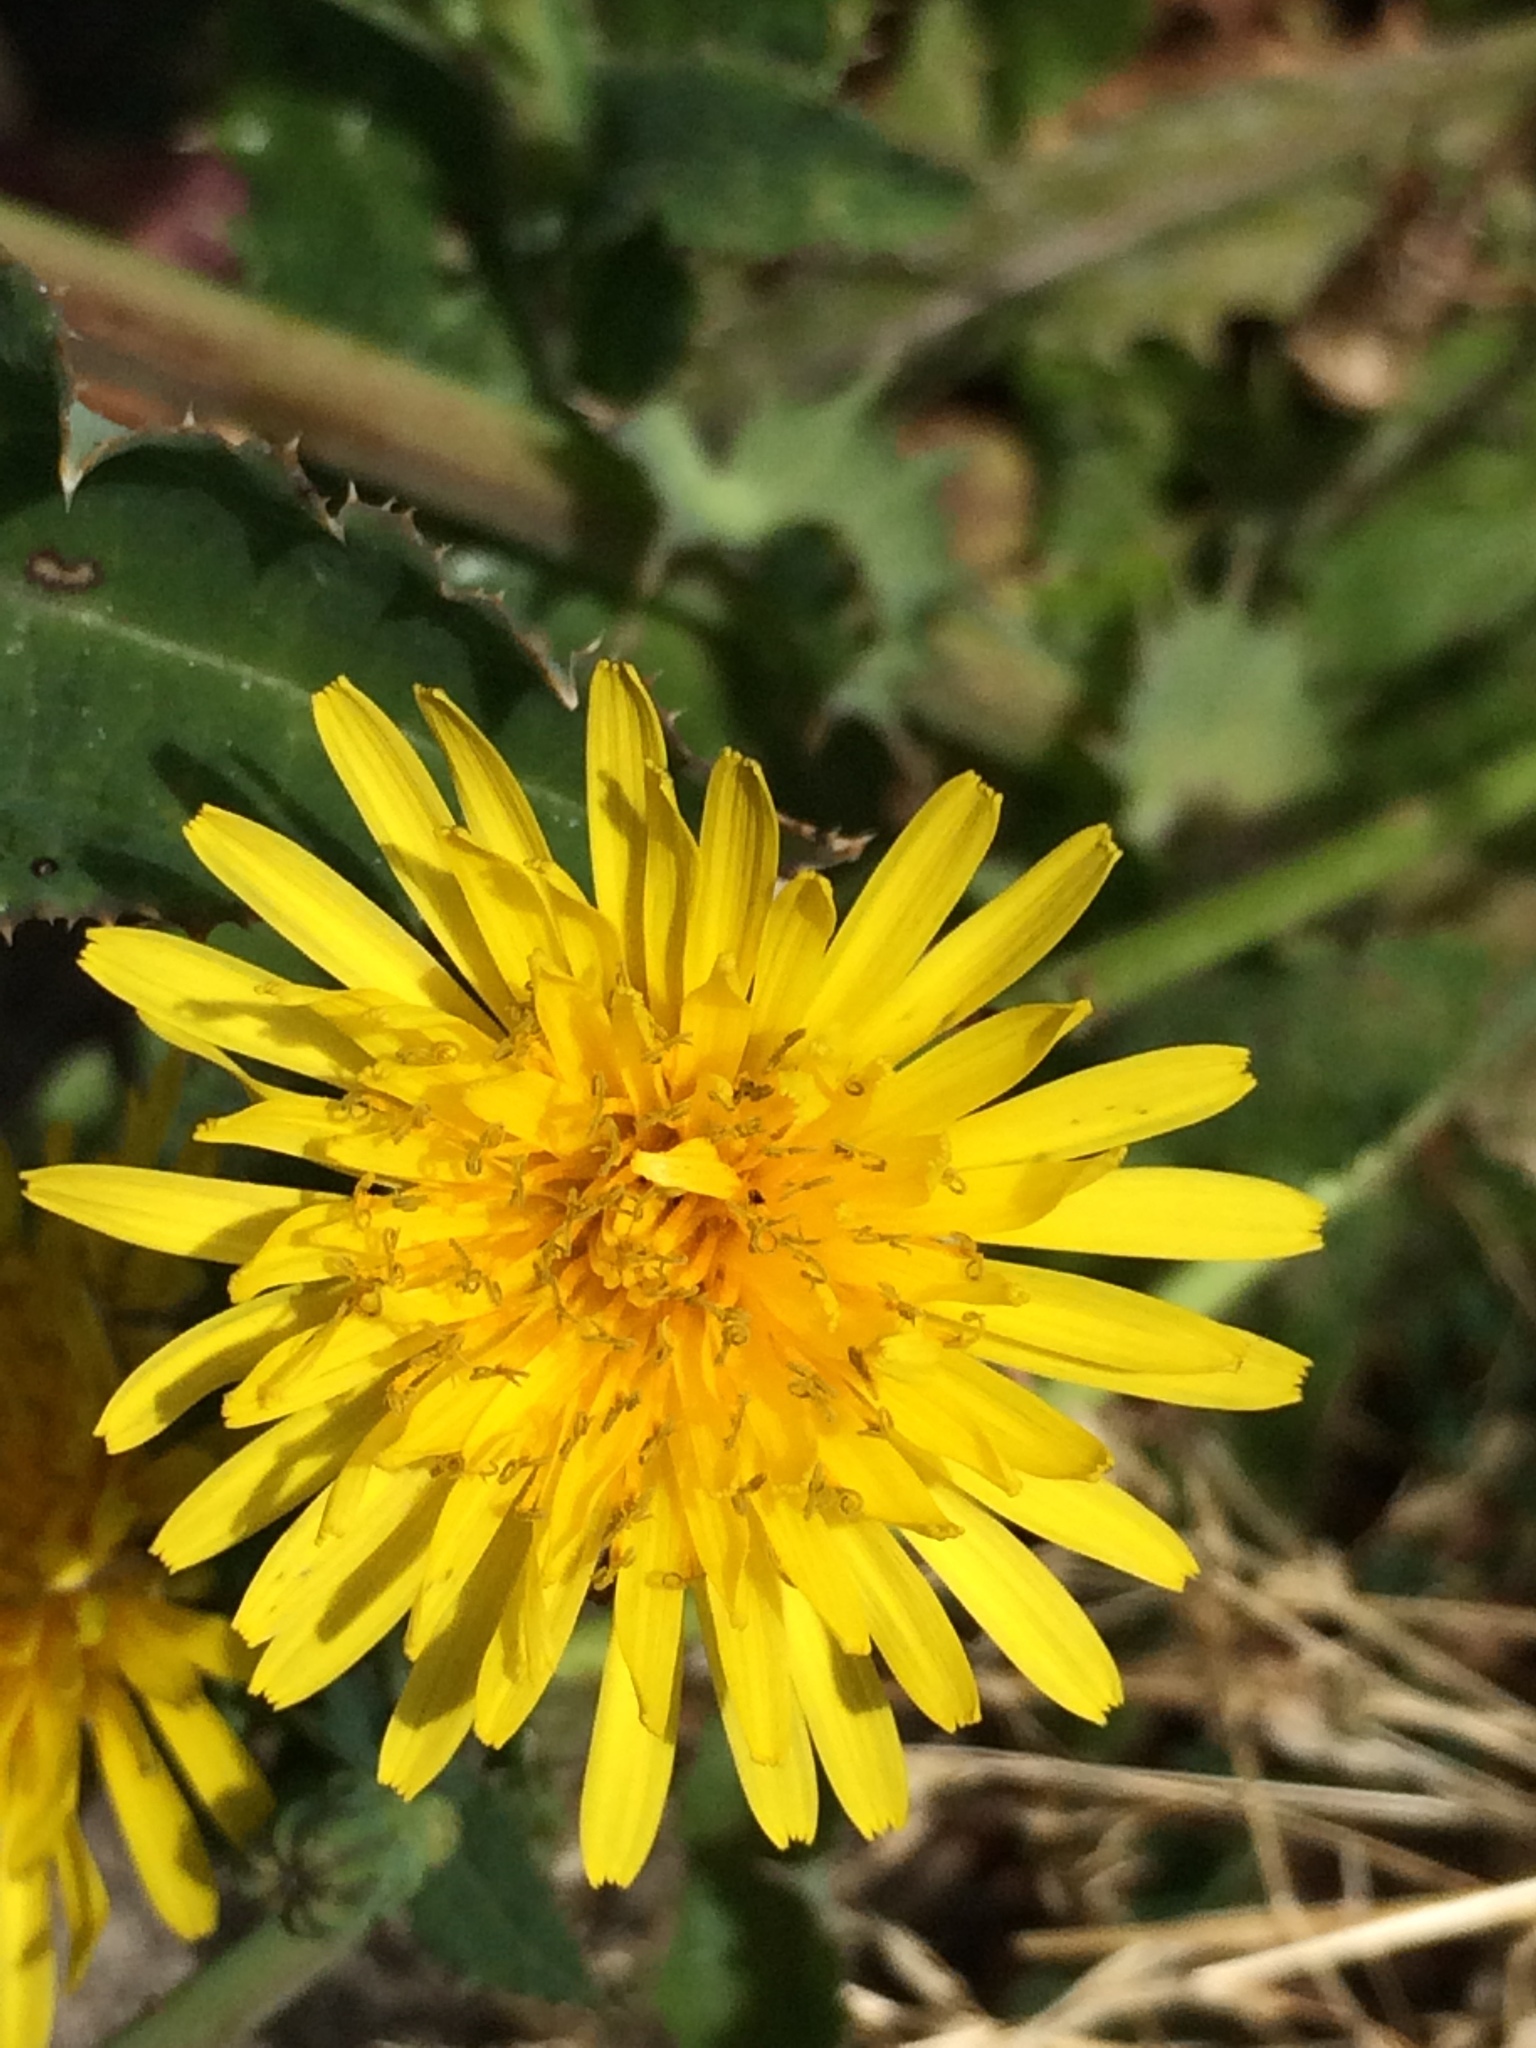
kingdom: Plantae
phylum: Tracheophyta
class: Magnoliopsida
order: Asterales
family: Asteraceae
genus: Taraxacum
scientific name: Taraxacum officinale
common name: Common dandelion
